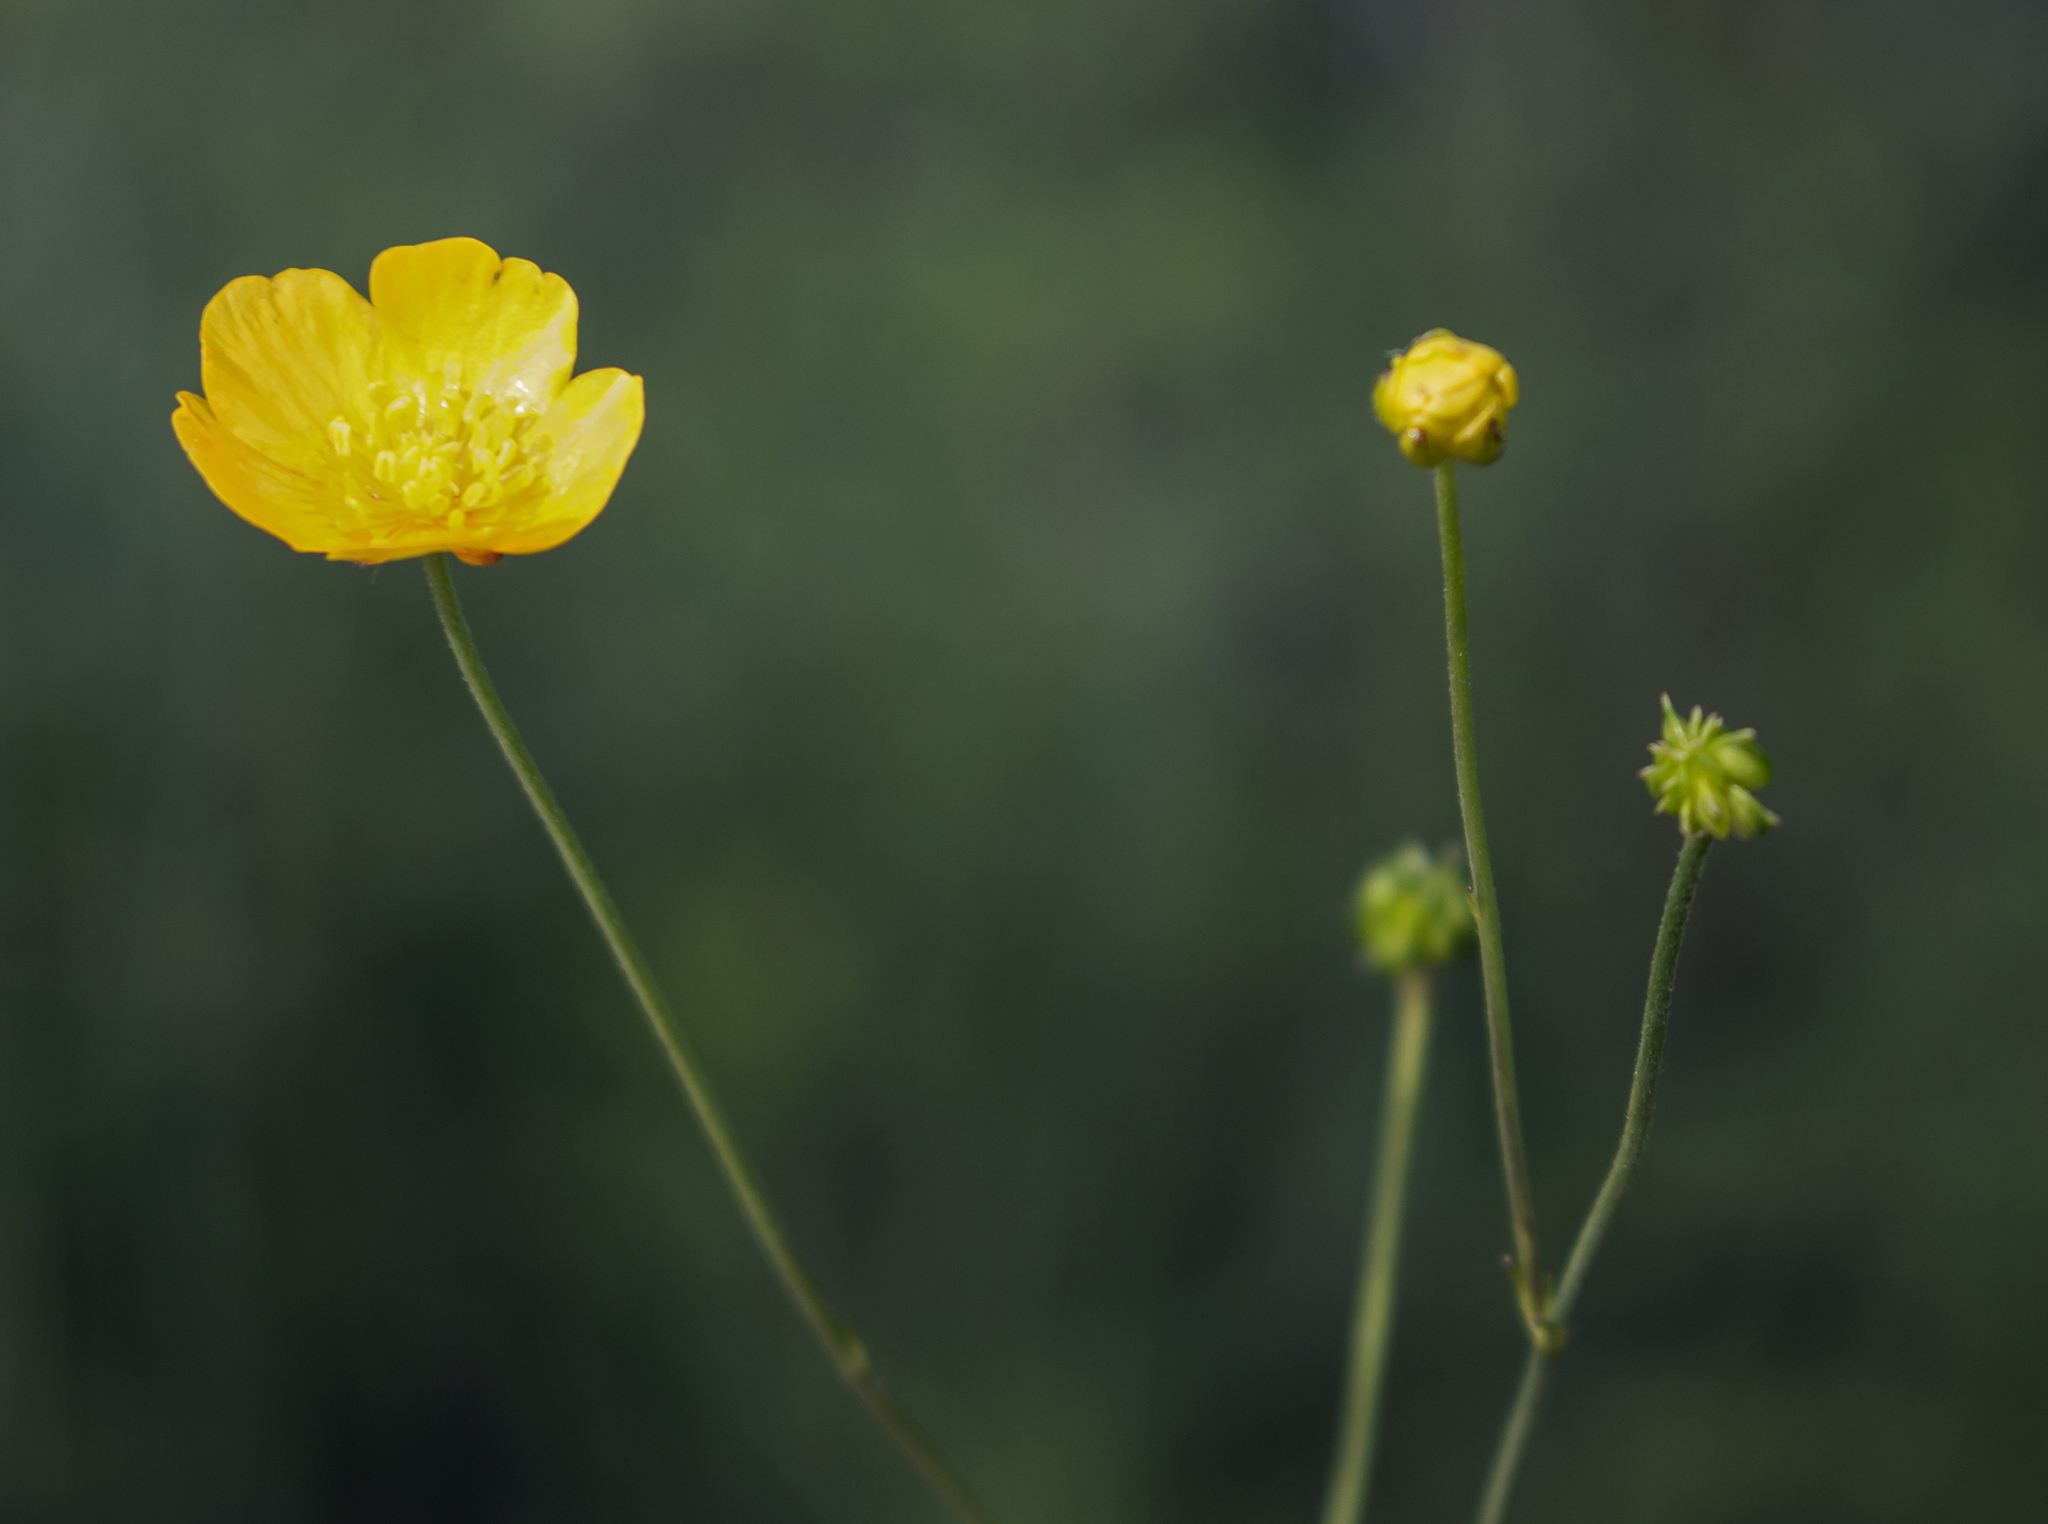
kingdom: Plantae
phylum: Tracheophyta
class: Magnoliopsida
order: Ranunculales
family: Ranunculaceae
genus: Ranunculus
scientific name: Ranunculus acris
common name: Meadow buttercup
